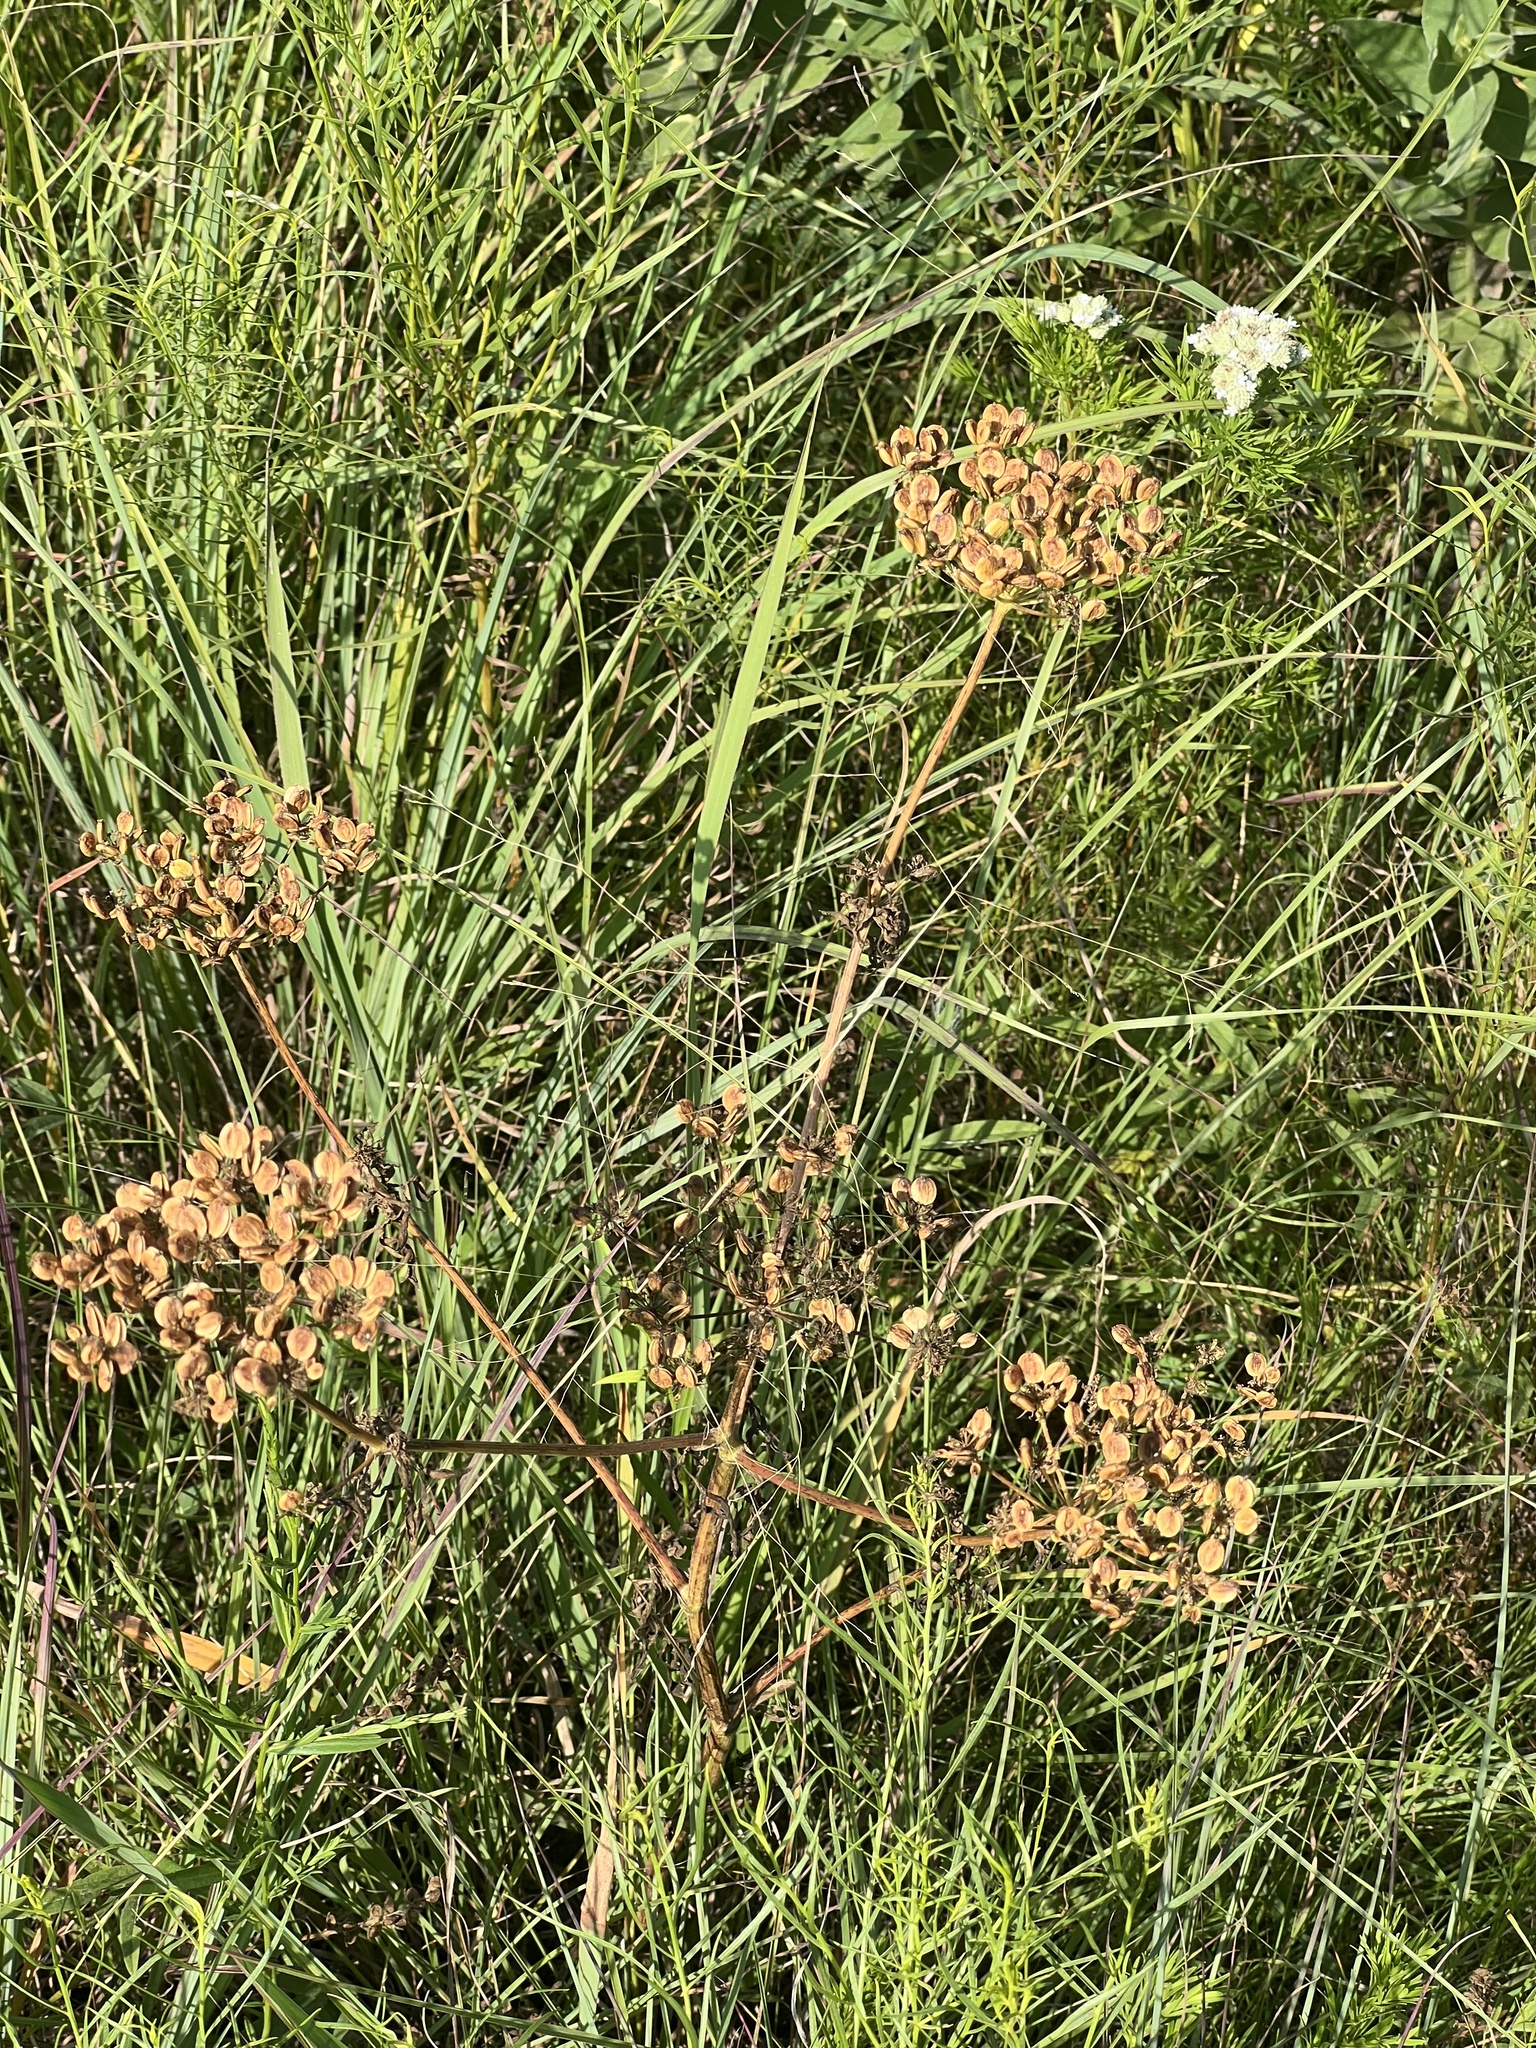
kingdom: Plantae
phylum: Tracheophyta
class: Magnoliopsida
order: Apiales
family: Apiaceae
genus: Polytaenia
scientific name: Polytaenia nuttallii
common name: Prairie-parsley
